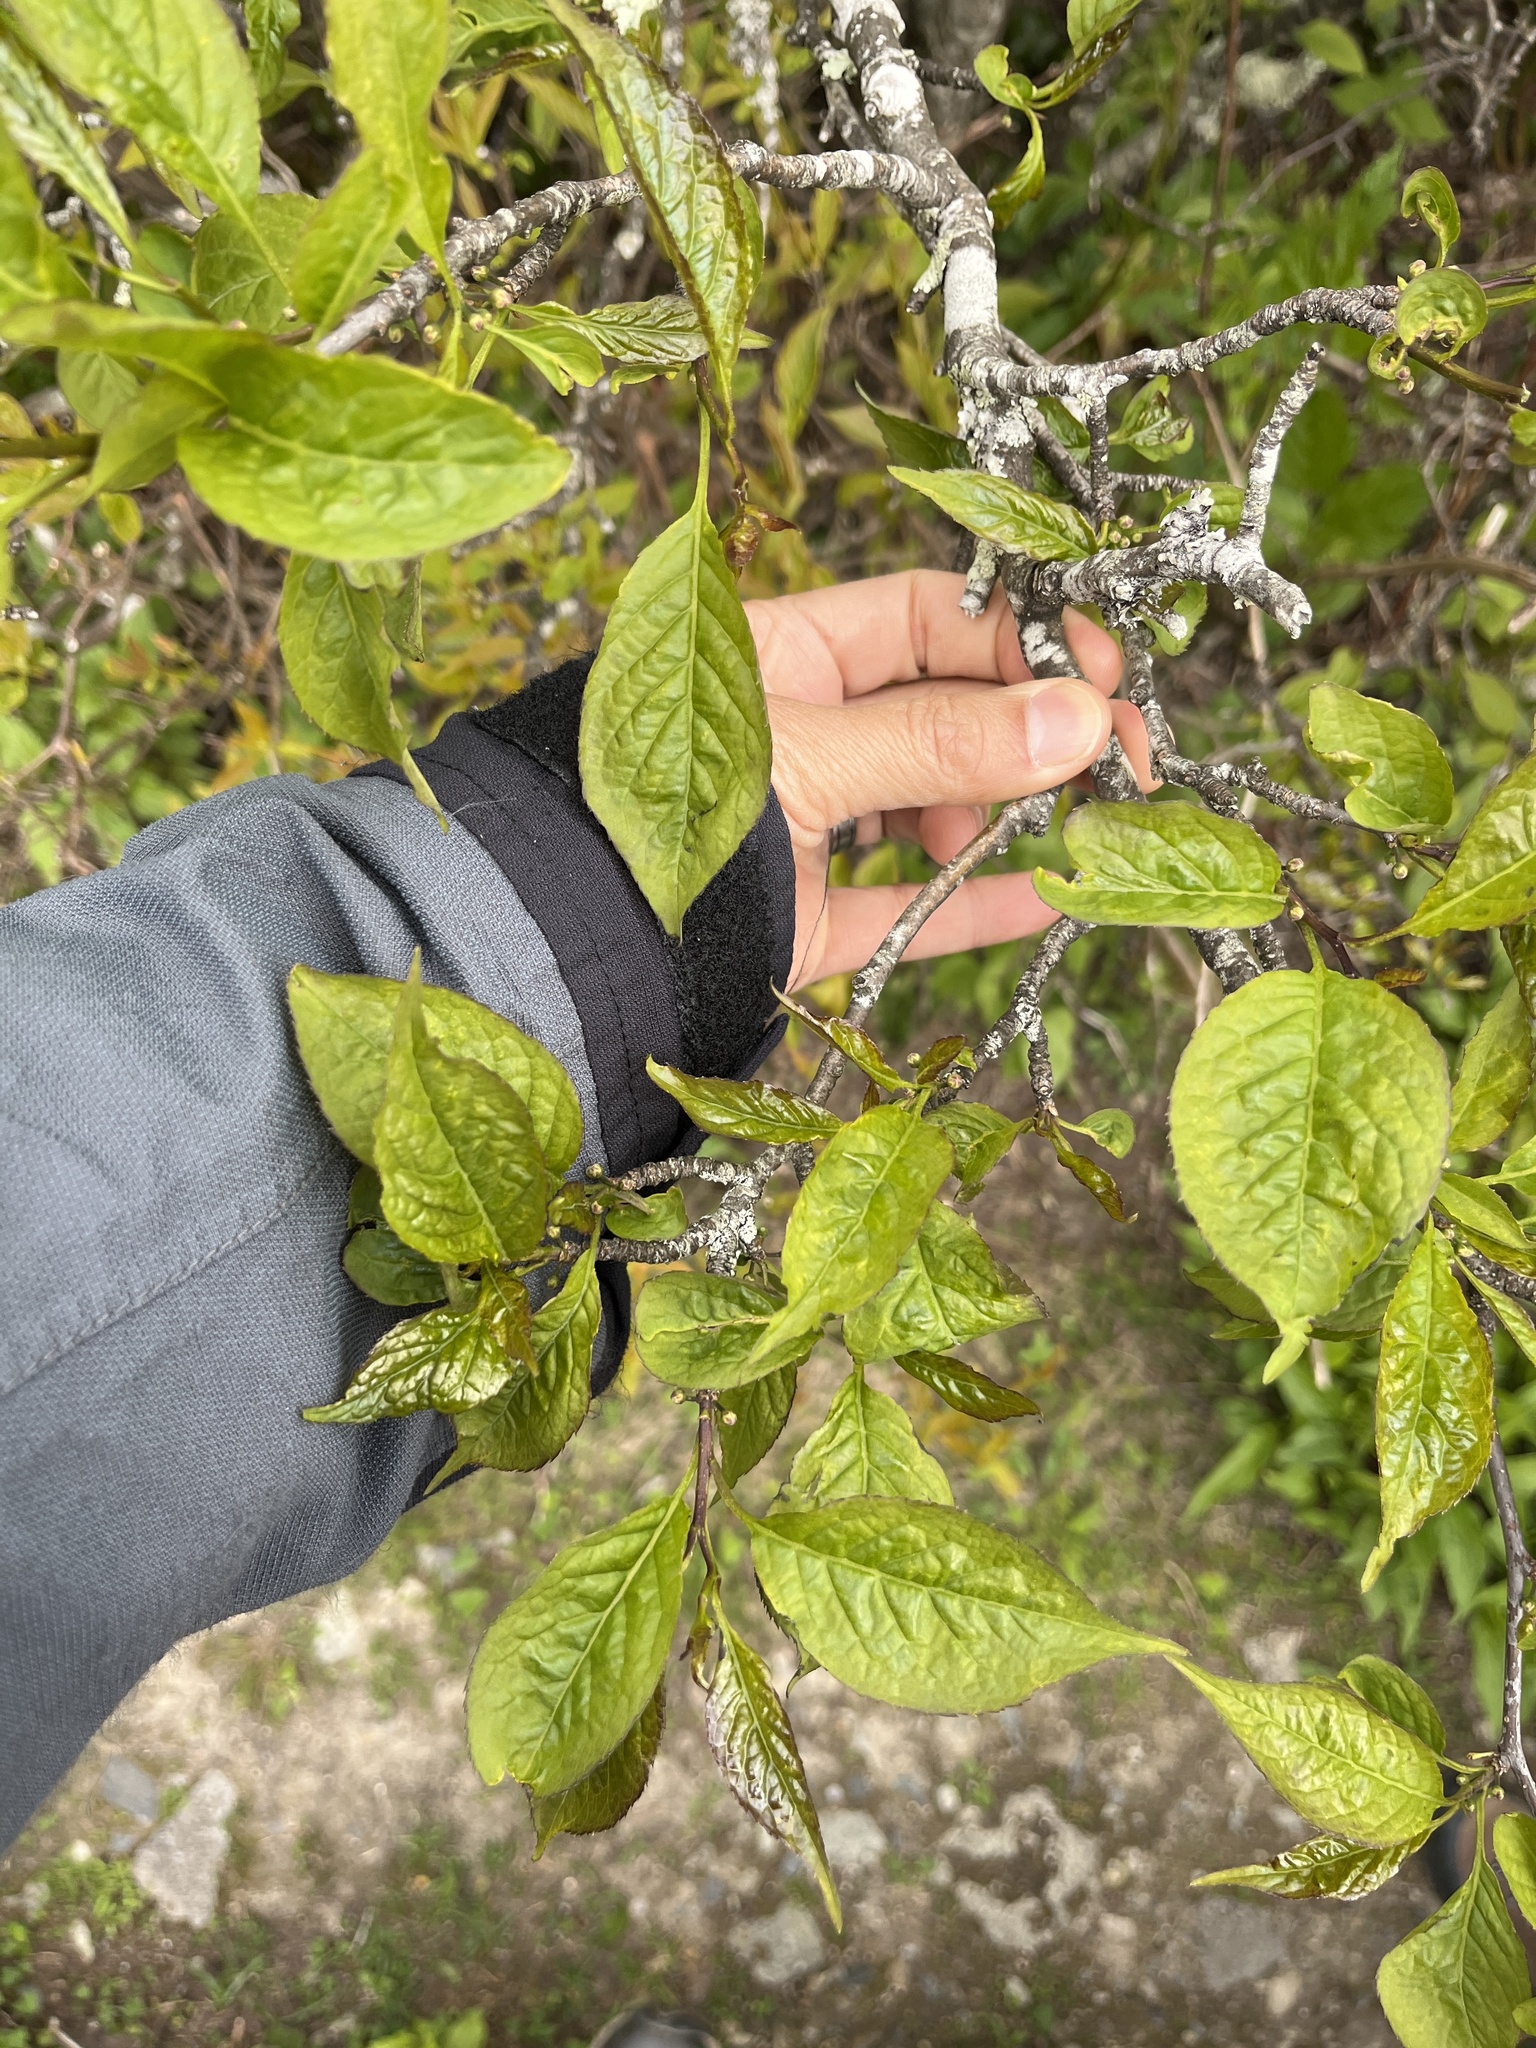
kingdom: Plantae
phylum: Tracheophyta
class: Magnoliopsida
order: Aquifoliales
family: Aquifoliaceae
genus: Ilex
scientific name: Ilex montana
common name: Mountain winterberry
